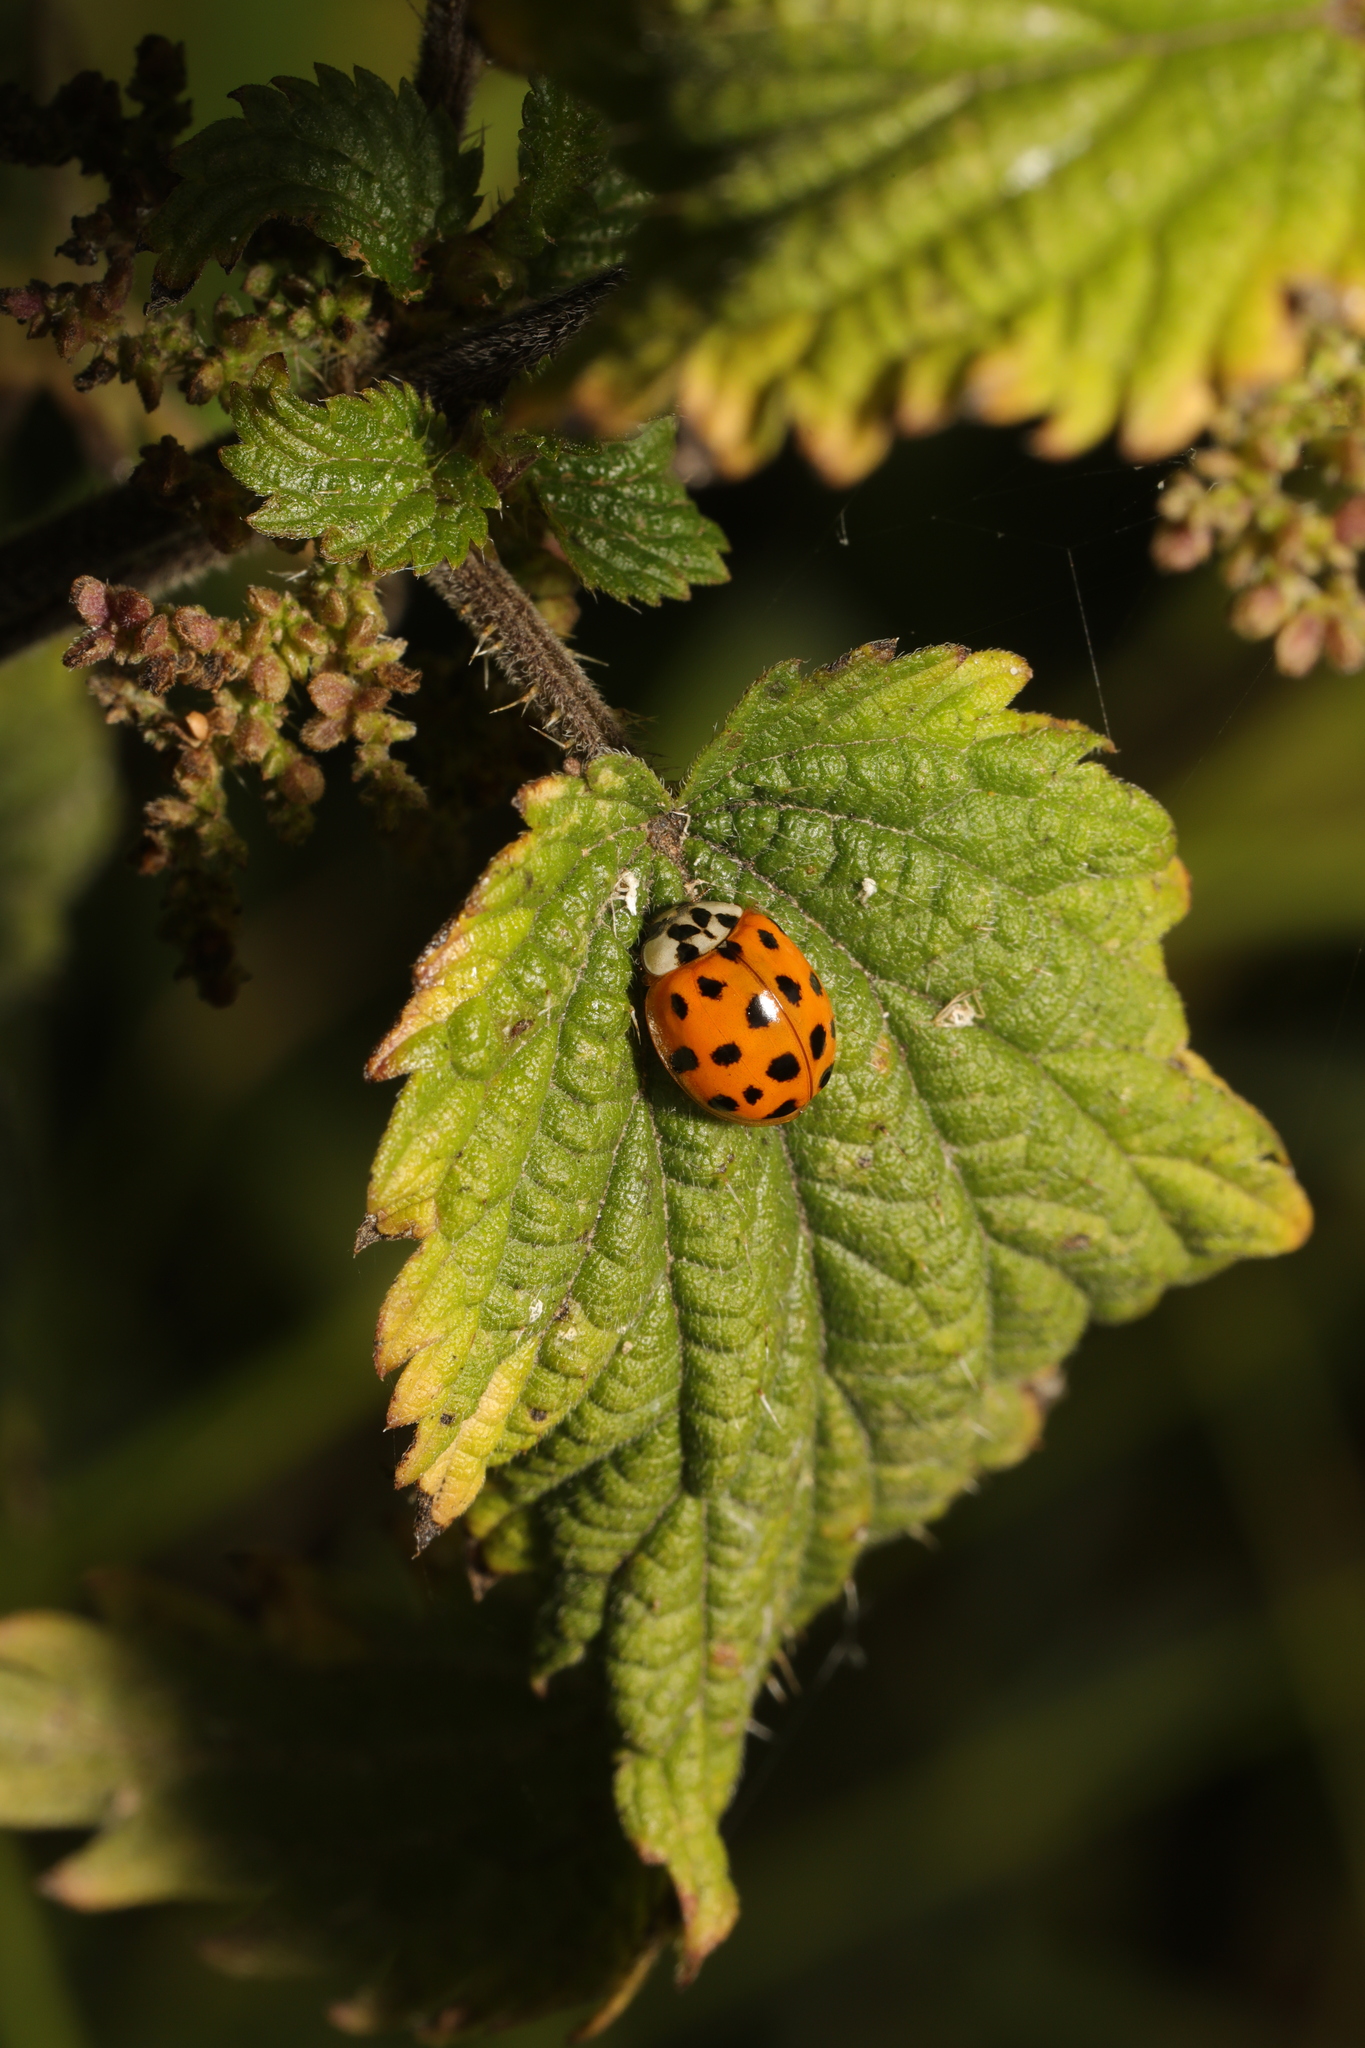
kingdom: Animalia
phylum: Arthropoda
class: Insecta
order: Coleoptera
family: Coccinellidae
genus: Harmonia
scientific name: Harmonia axyridis
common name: Harlequin ladybird
